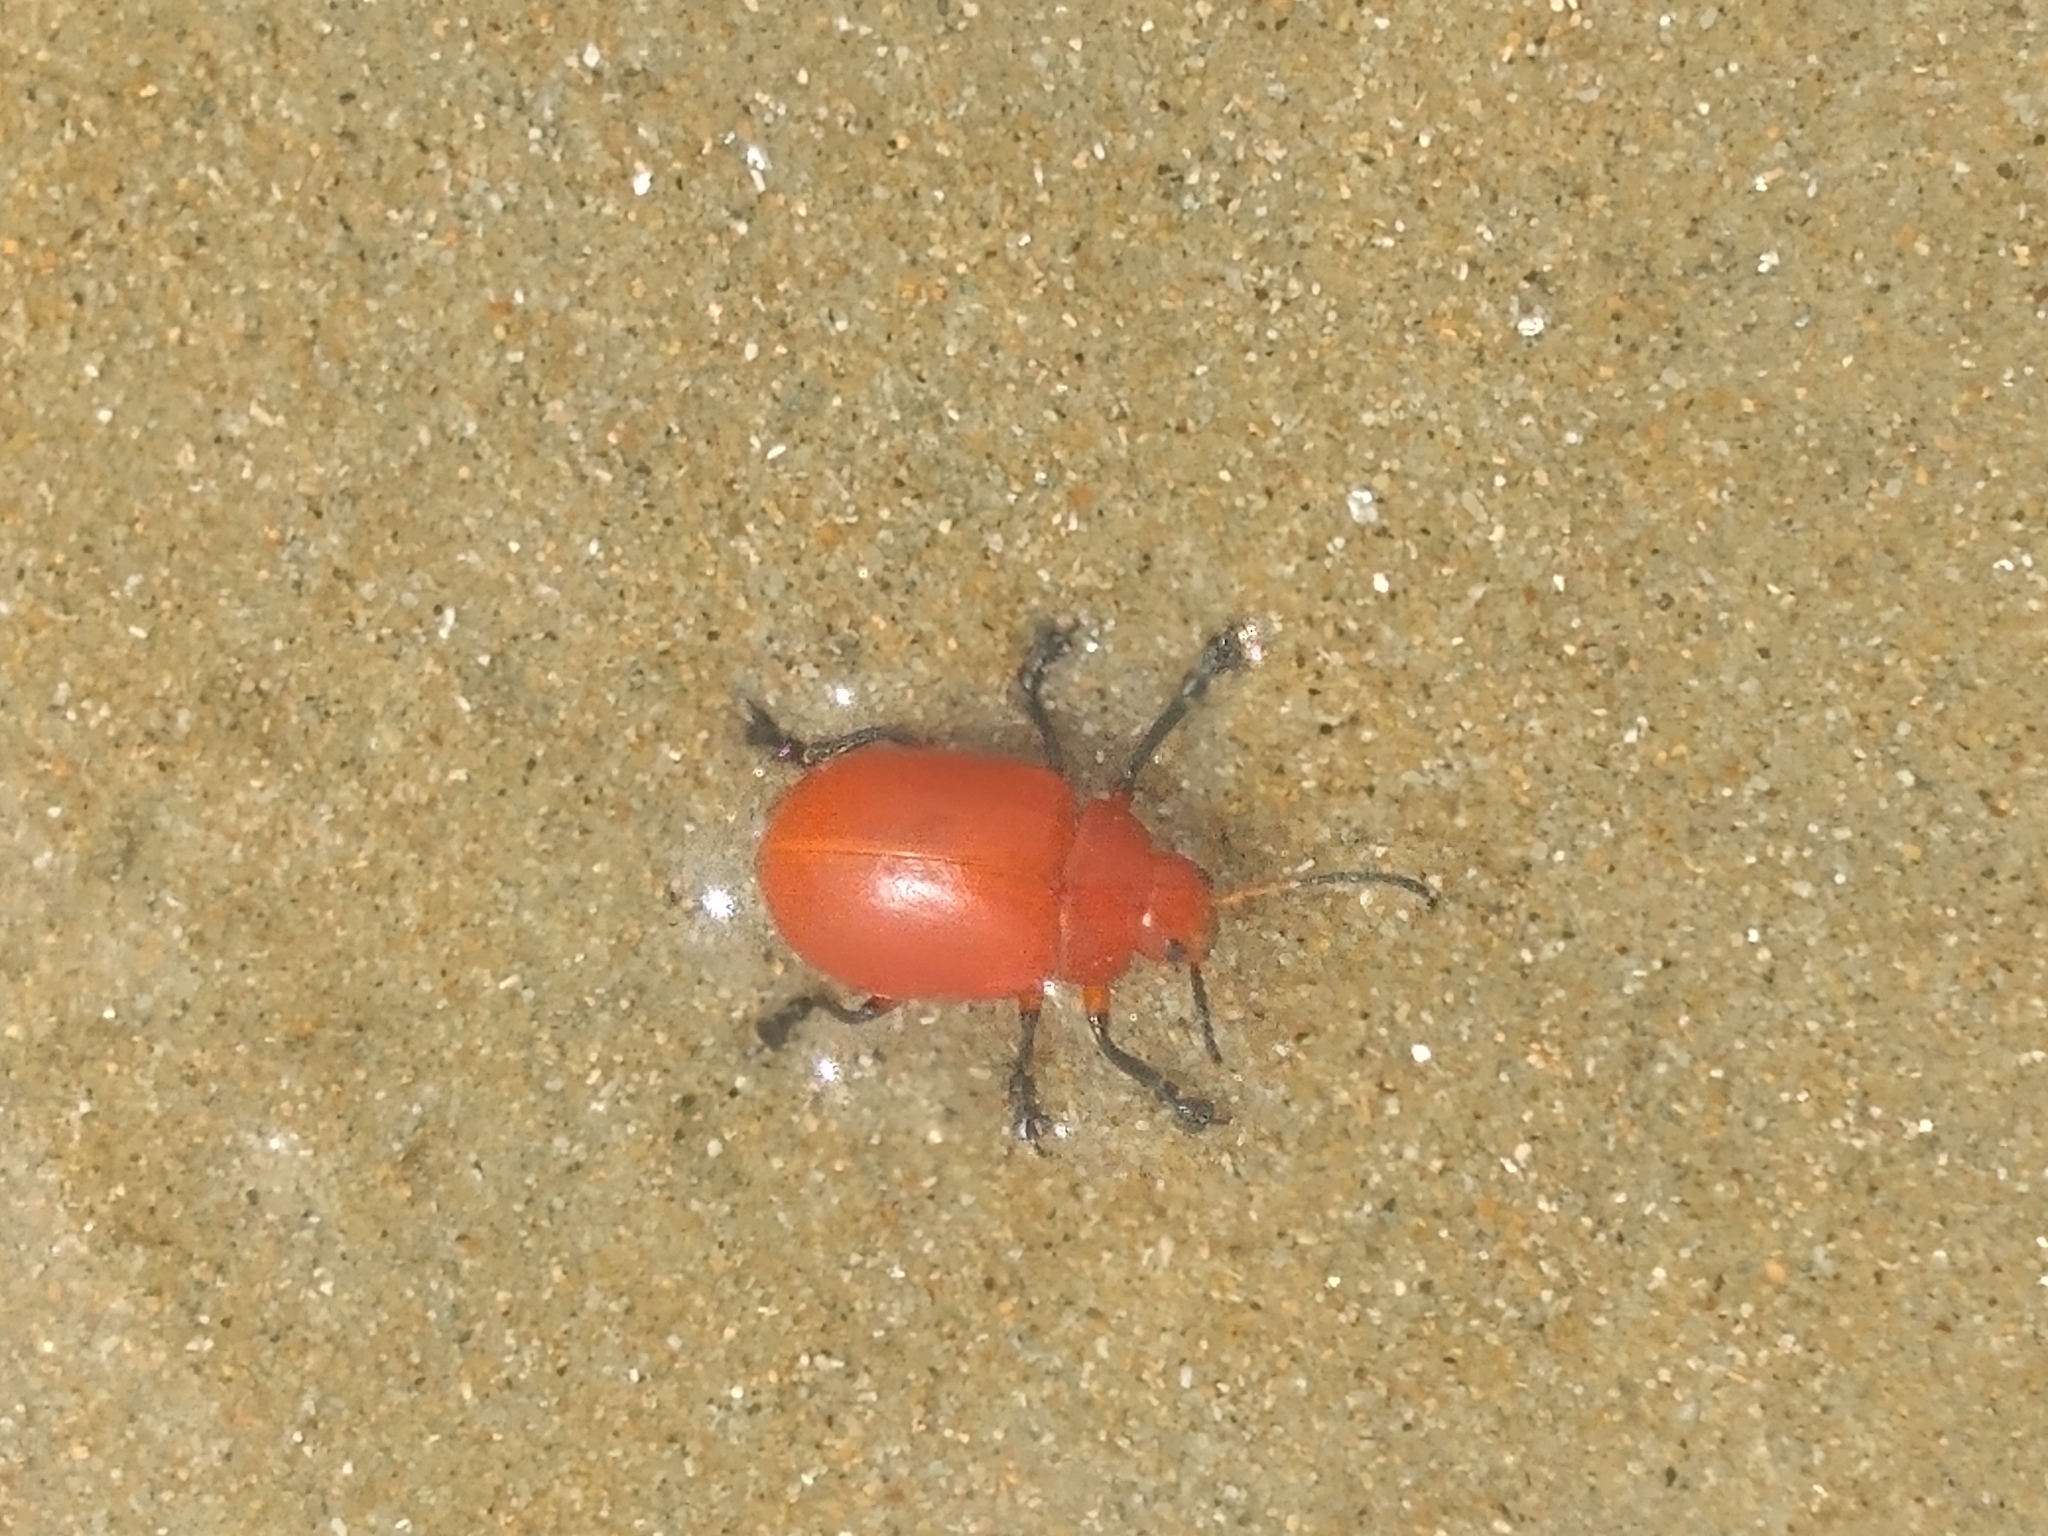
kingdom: Animalia
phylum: Arthropoda
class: Insecta
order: Coleoptera
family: Chrysomelidae
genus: Crimissa
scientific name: Crimissa cruralis
